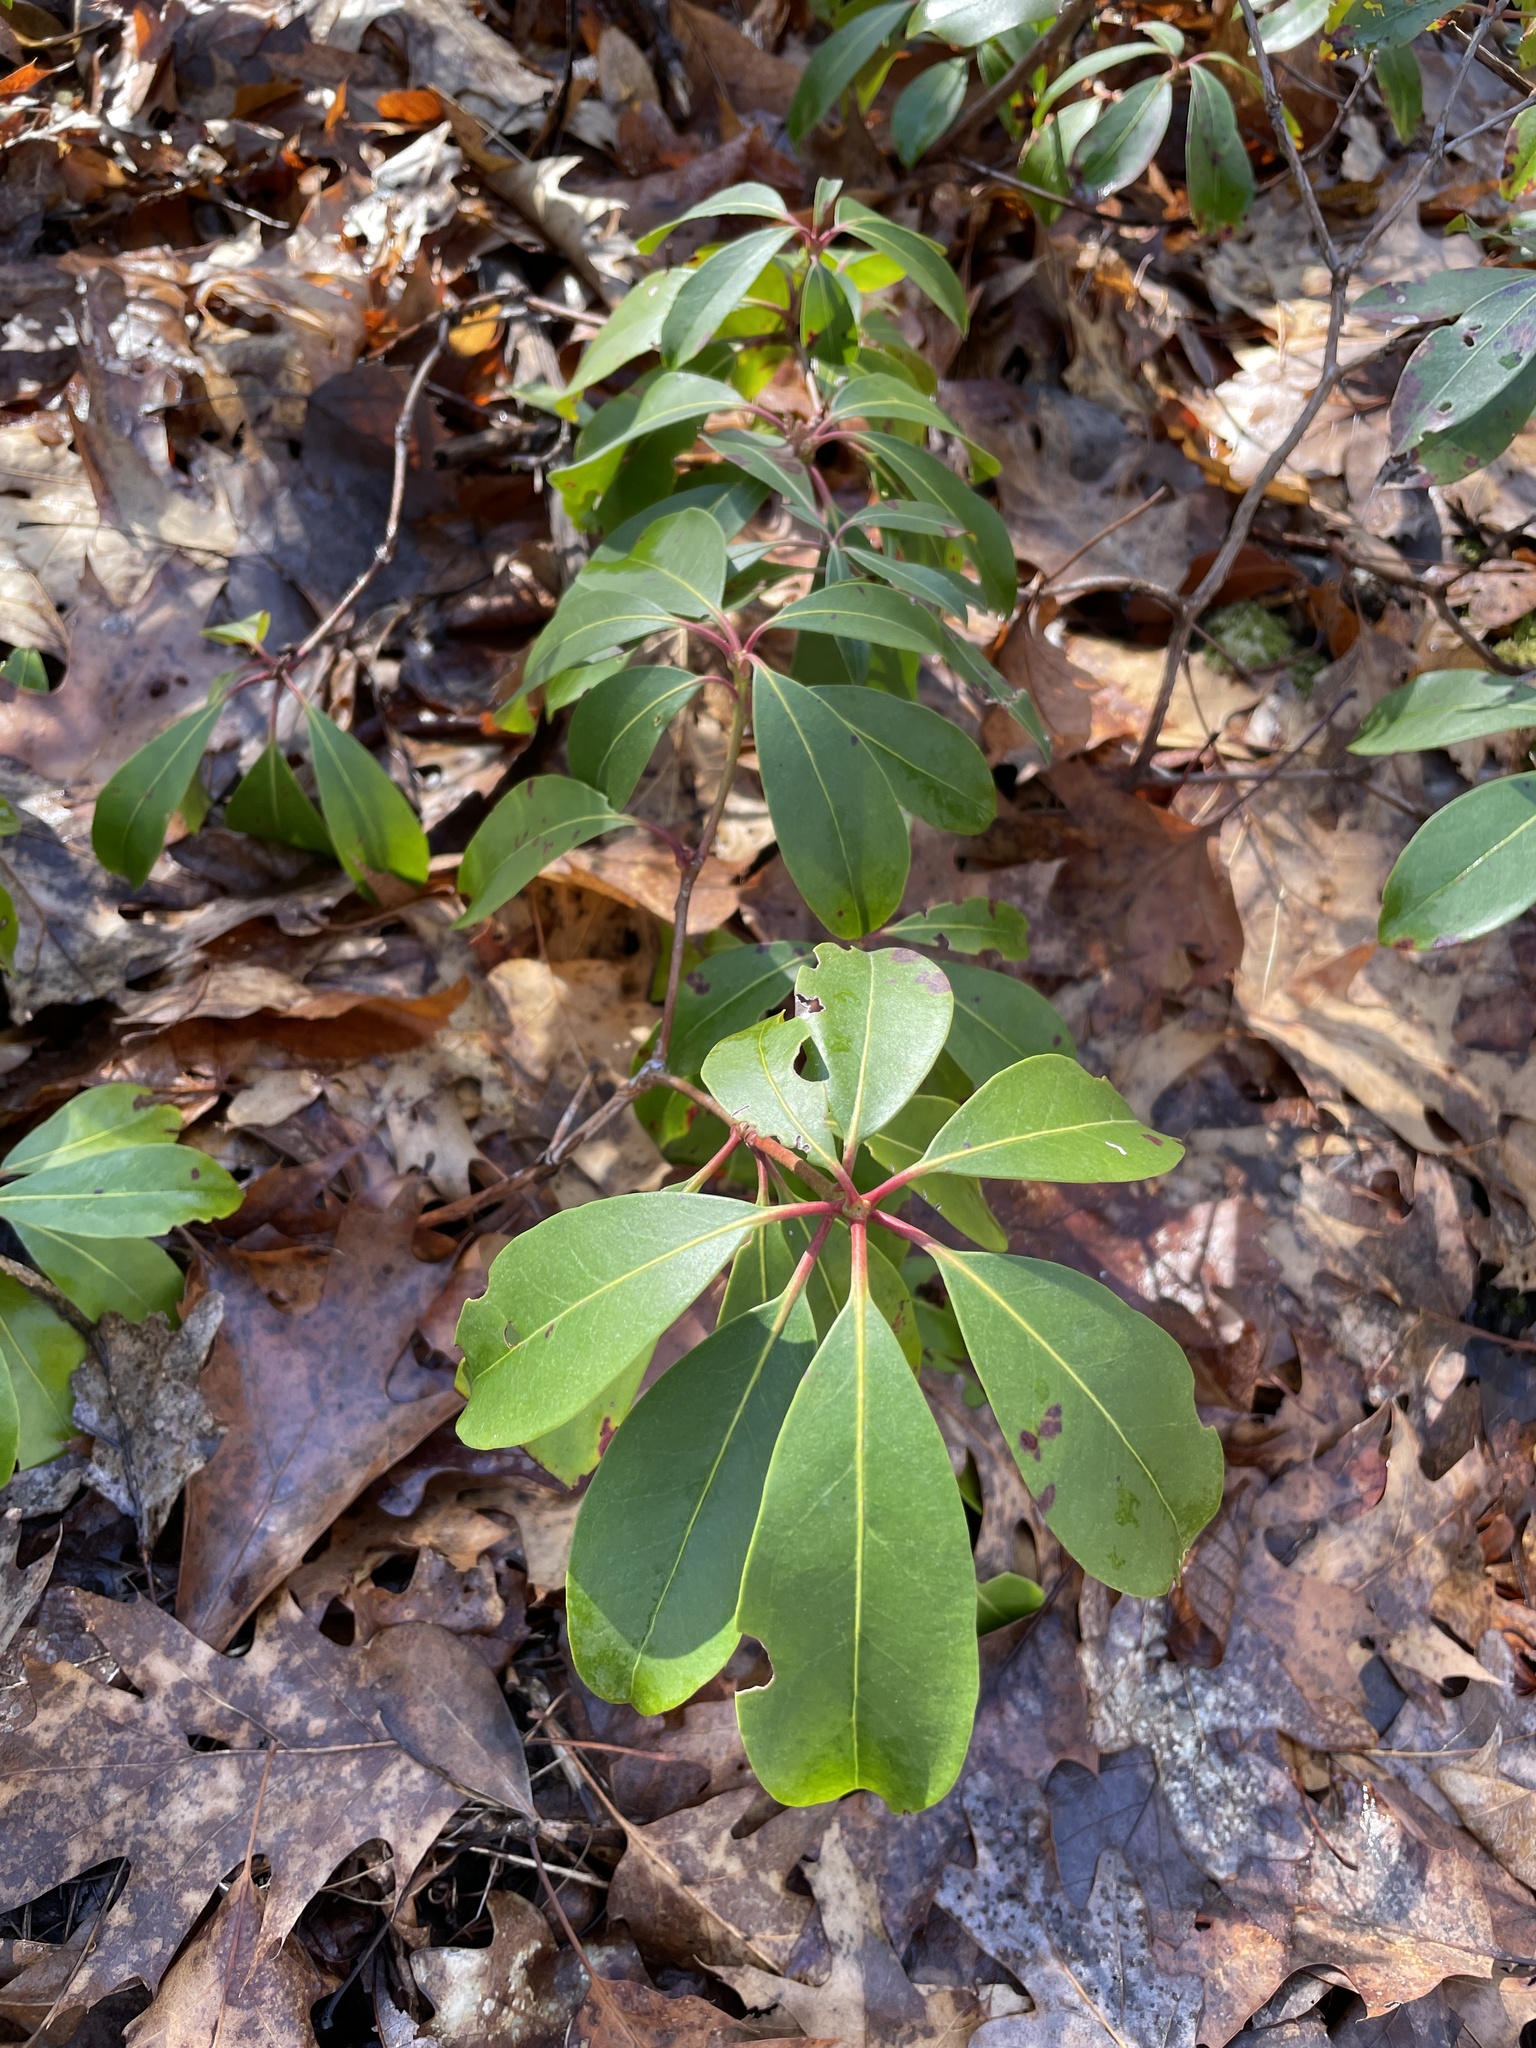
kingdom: Plantae
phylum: Tracheophyta
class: Magnoliopsida
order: Ericales
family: Ericaceae
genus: Kalmia
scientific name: Kalmia latifolia
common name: Mountain-laurel
